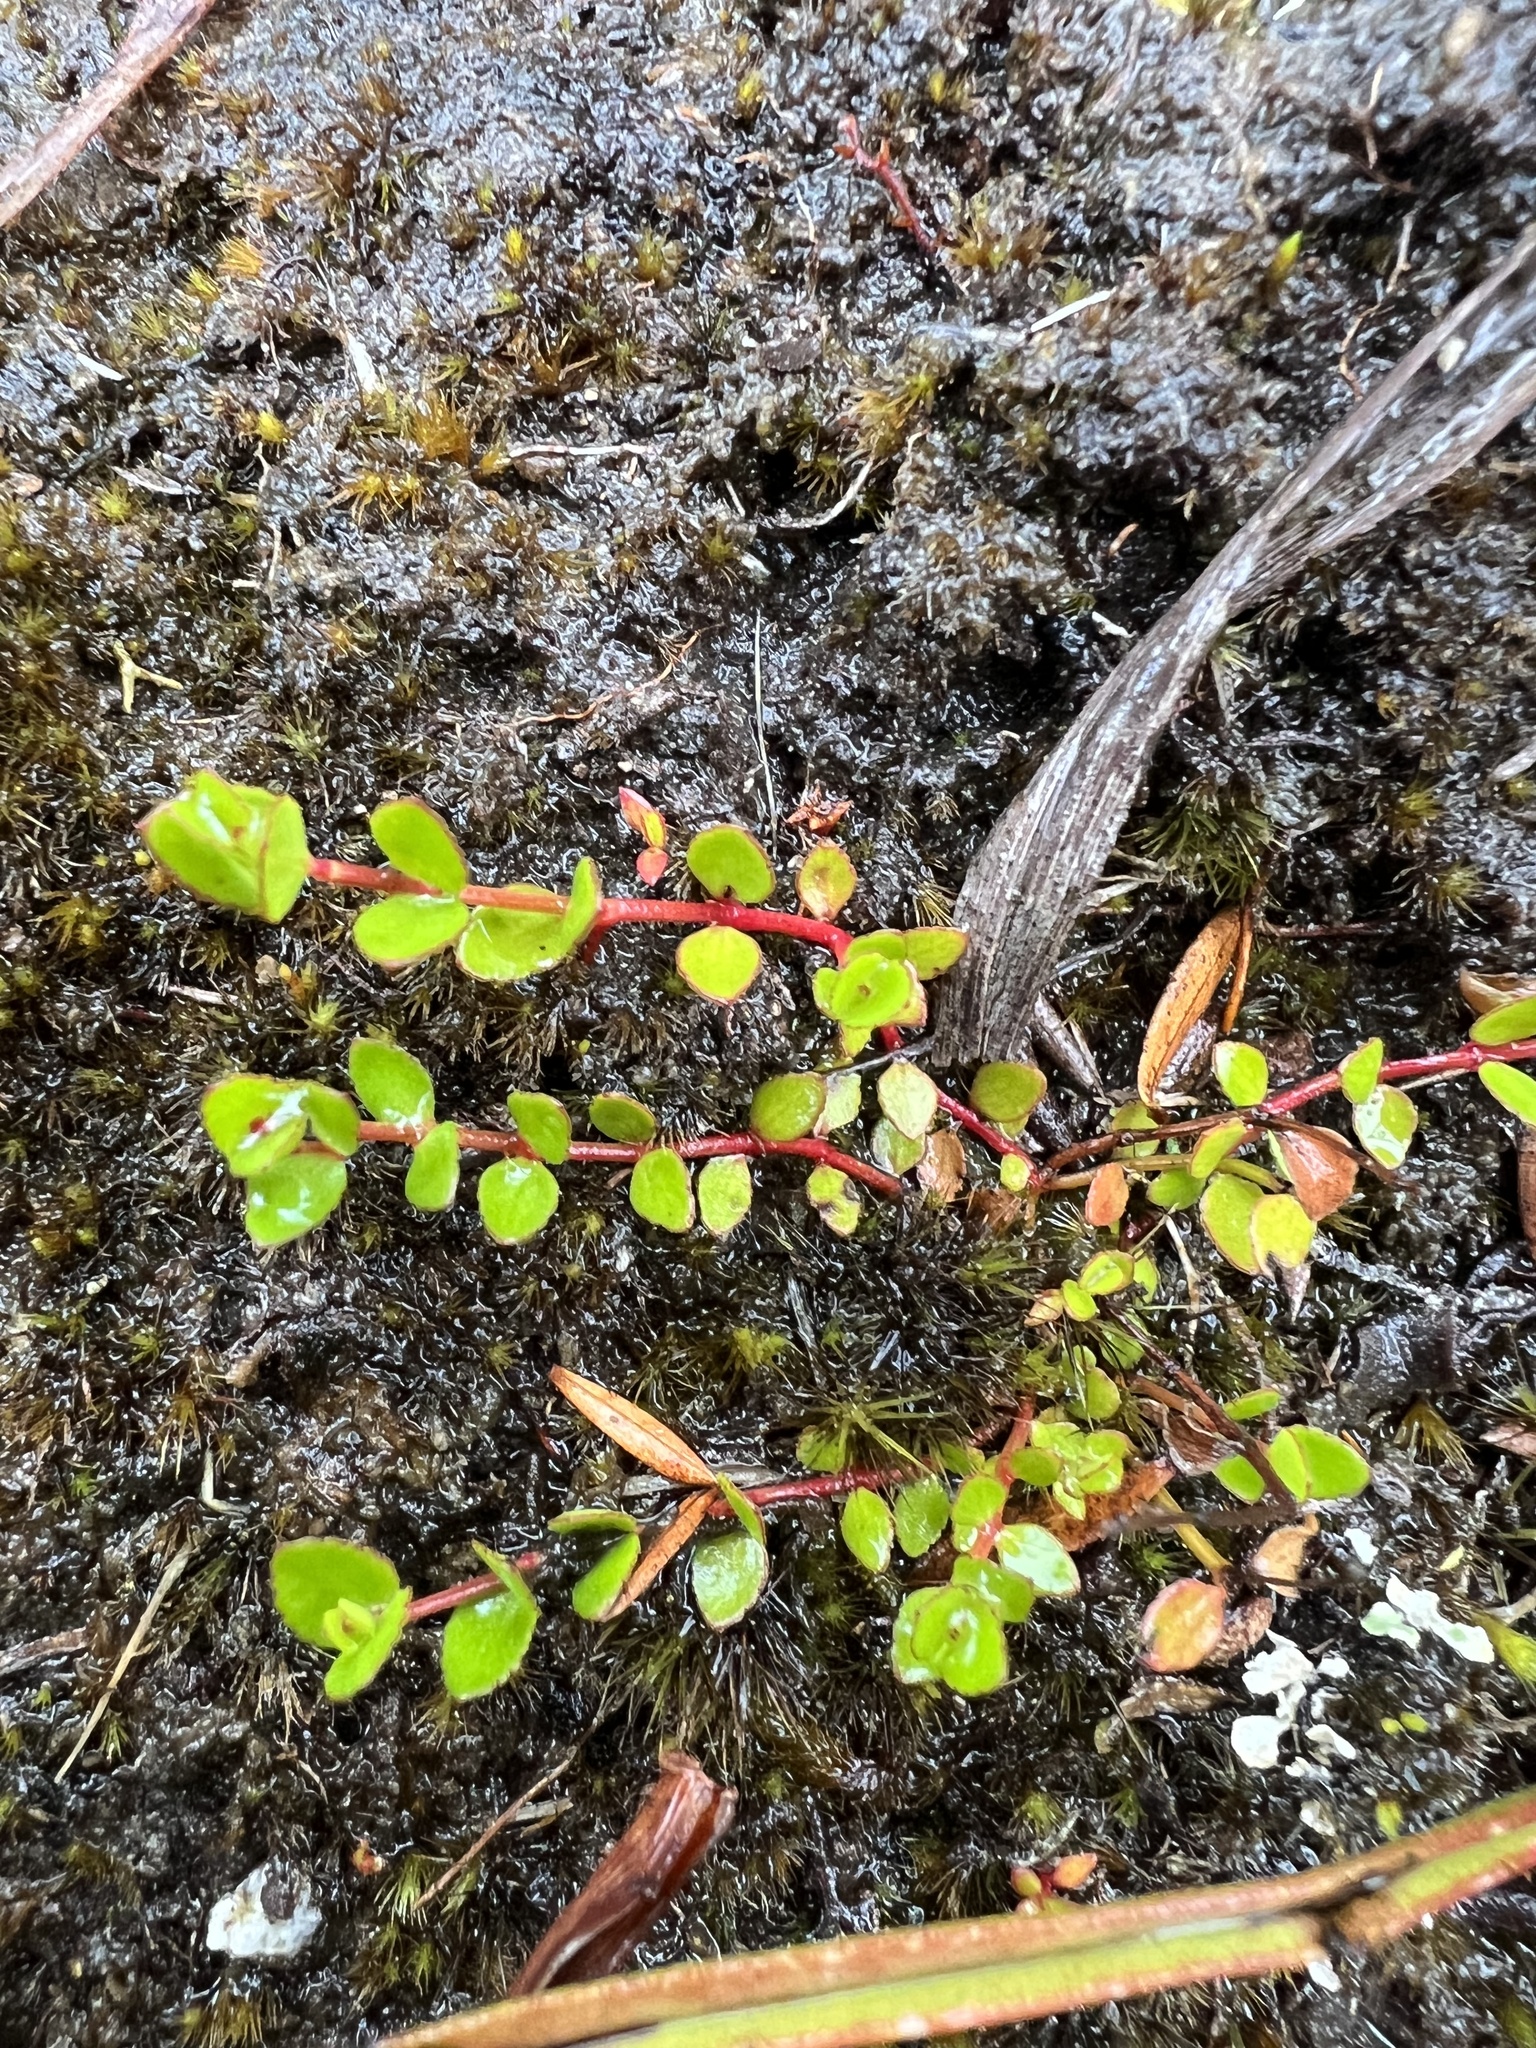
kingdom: Plantae
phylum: Tracheophyta
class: Magnoliopsida
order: Saxifragales
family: Haloragaceae
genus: Gonocarpus
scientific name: Gonocarpus micranthus
